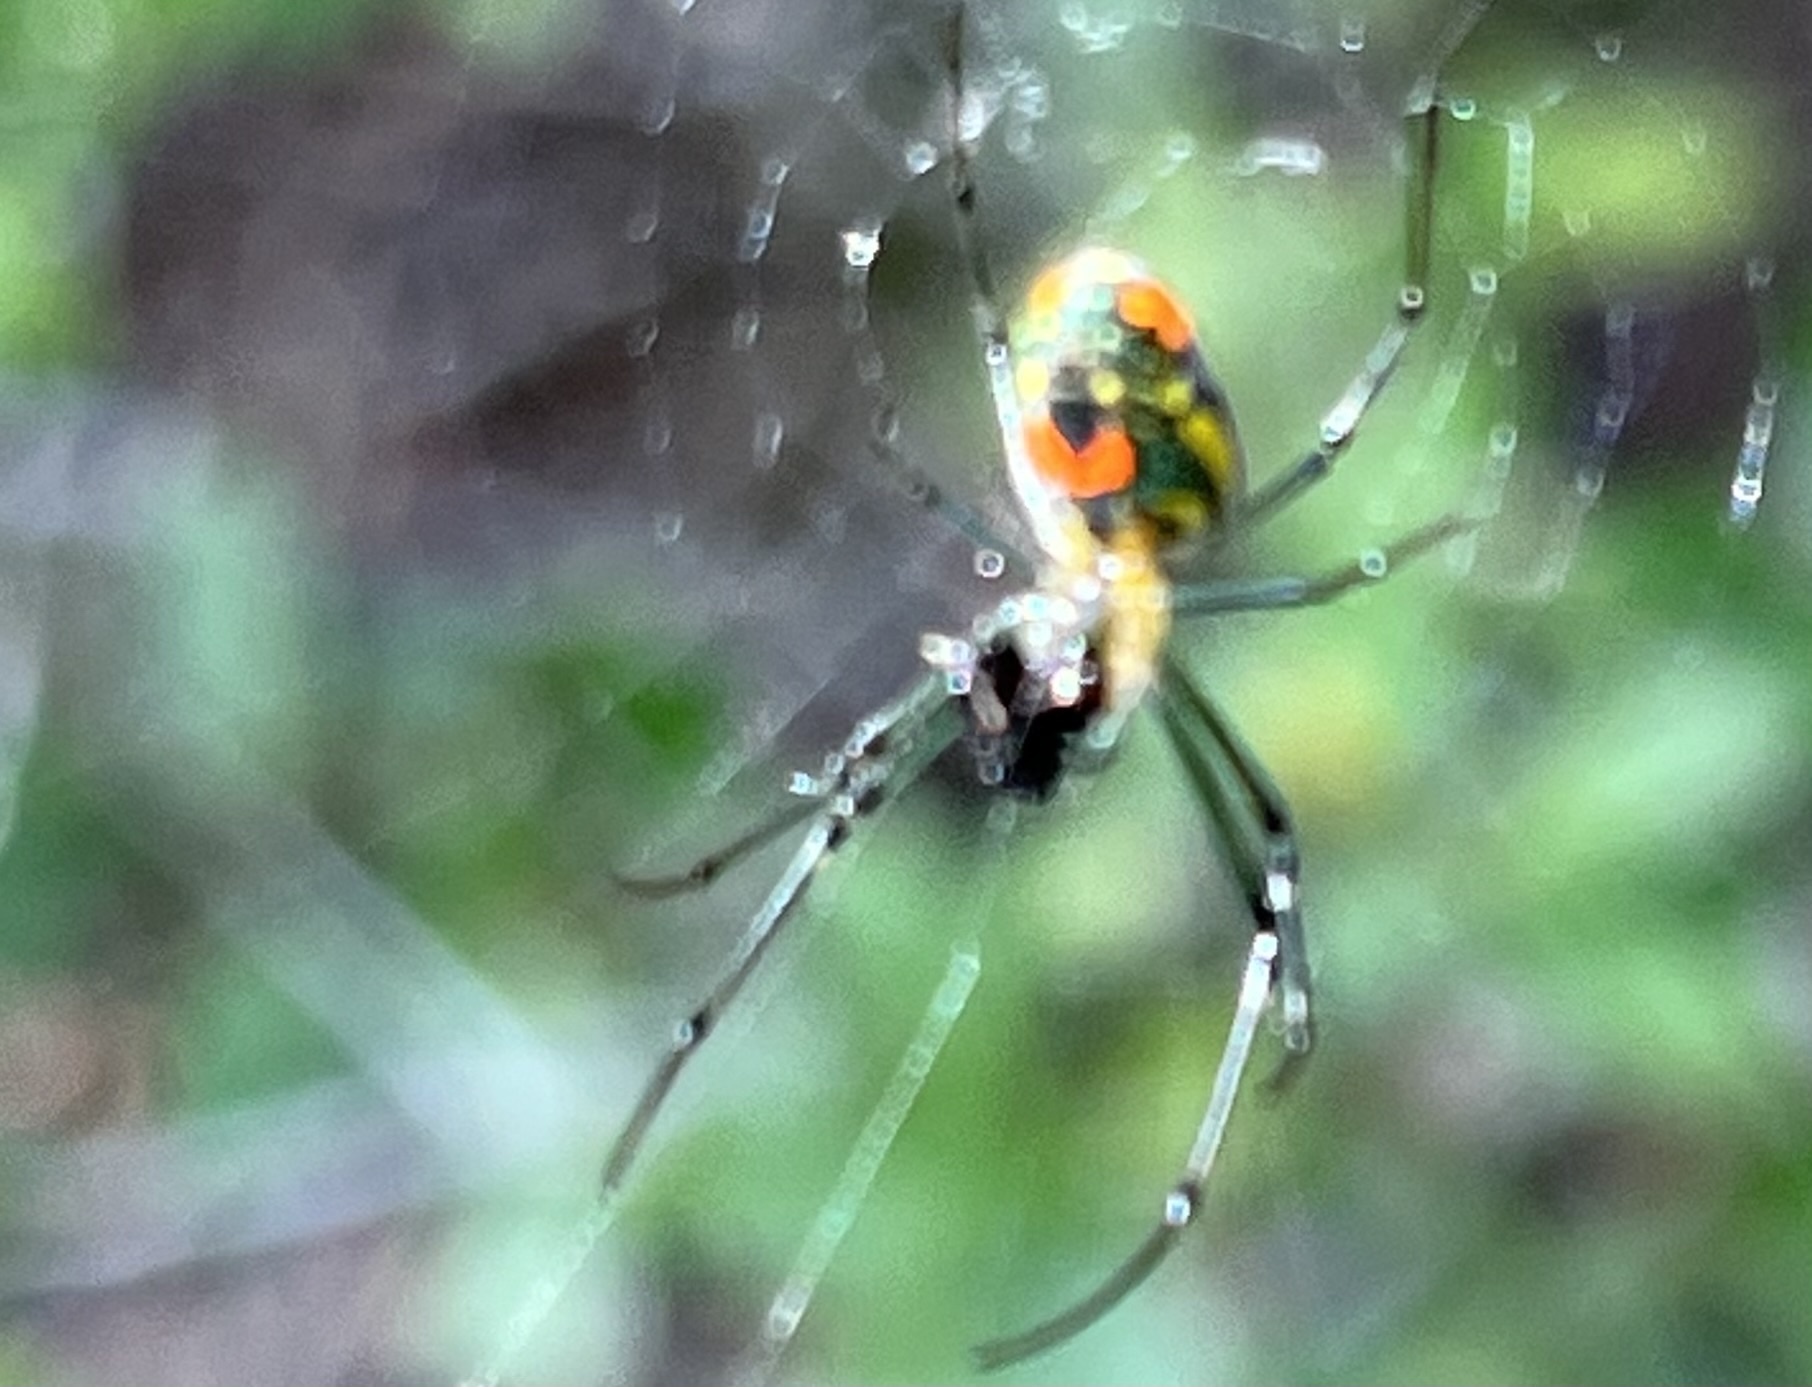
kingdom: Animalia
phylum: Arthropoda
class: Arachnida
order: Araneae
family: Tetragnathidae
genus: Leucauge
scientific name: Leucauge argyrobapta
